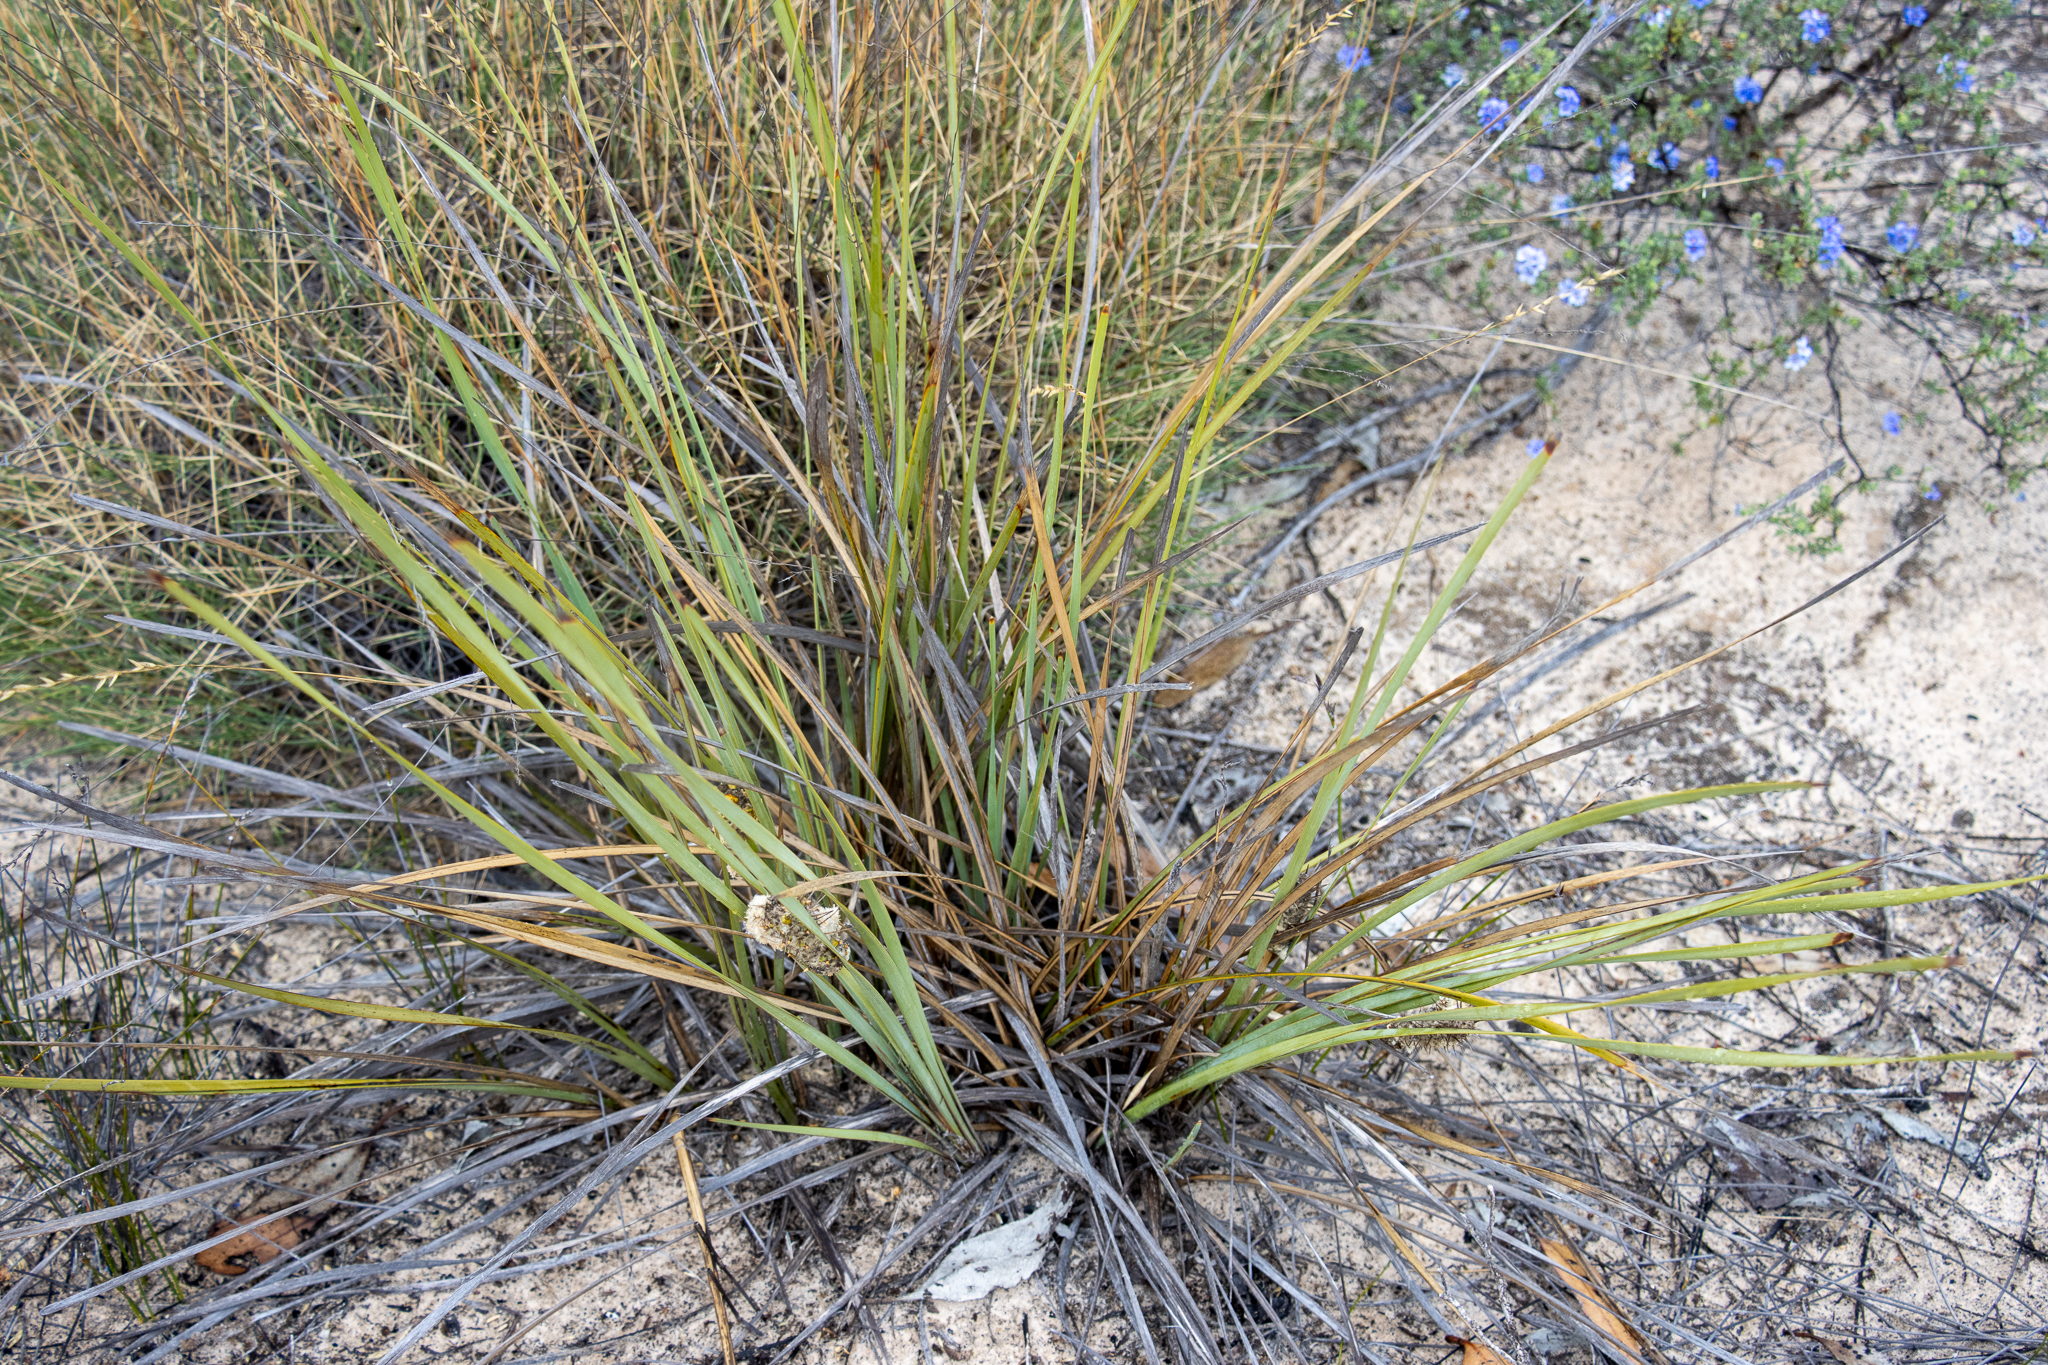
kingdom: Plantae
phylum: Tracheophyta
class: Liliopsida
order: Asparagales
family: Asparagaceae
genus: Lomandra
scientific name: Lomandra leucocephala
